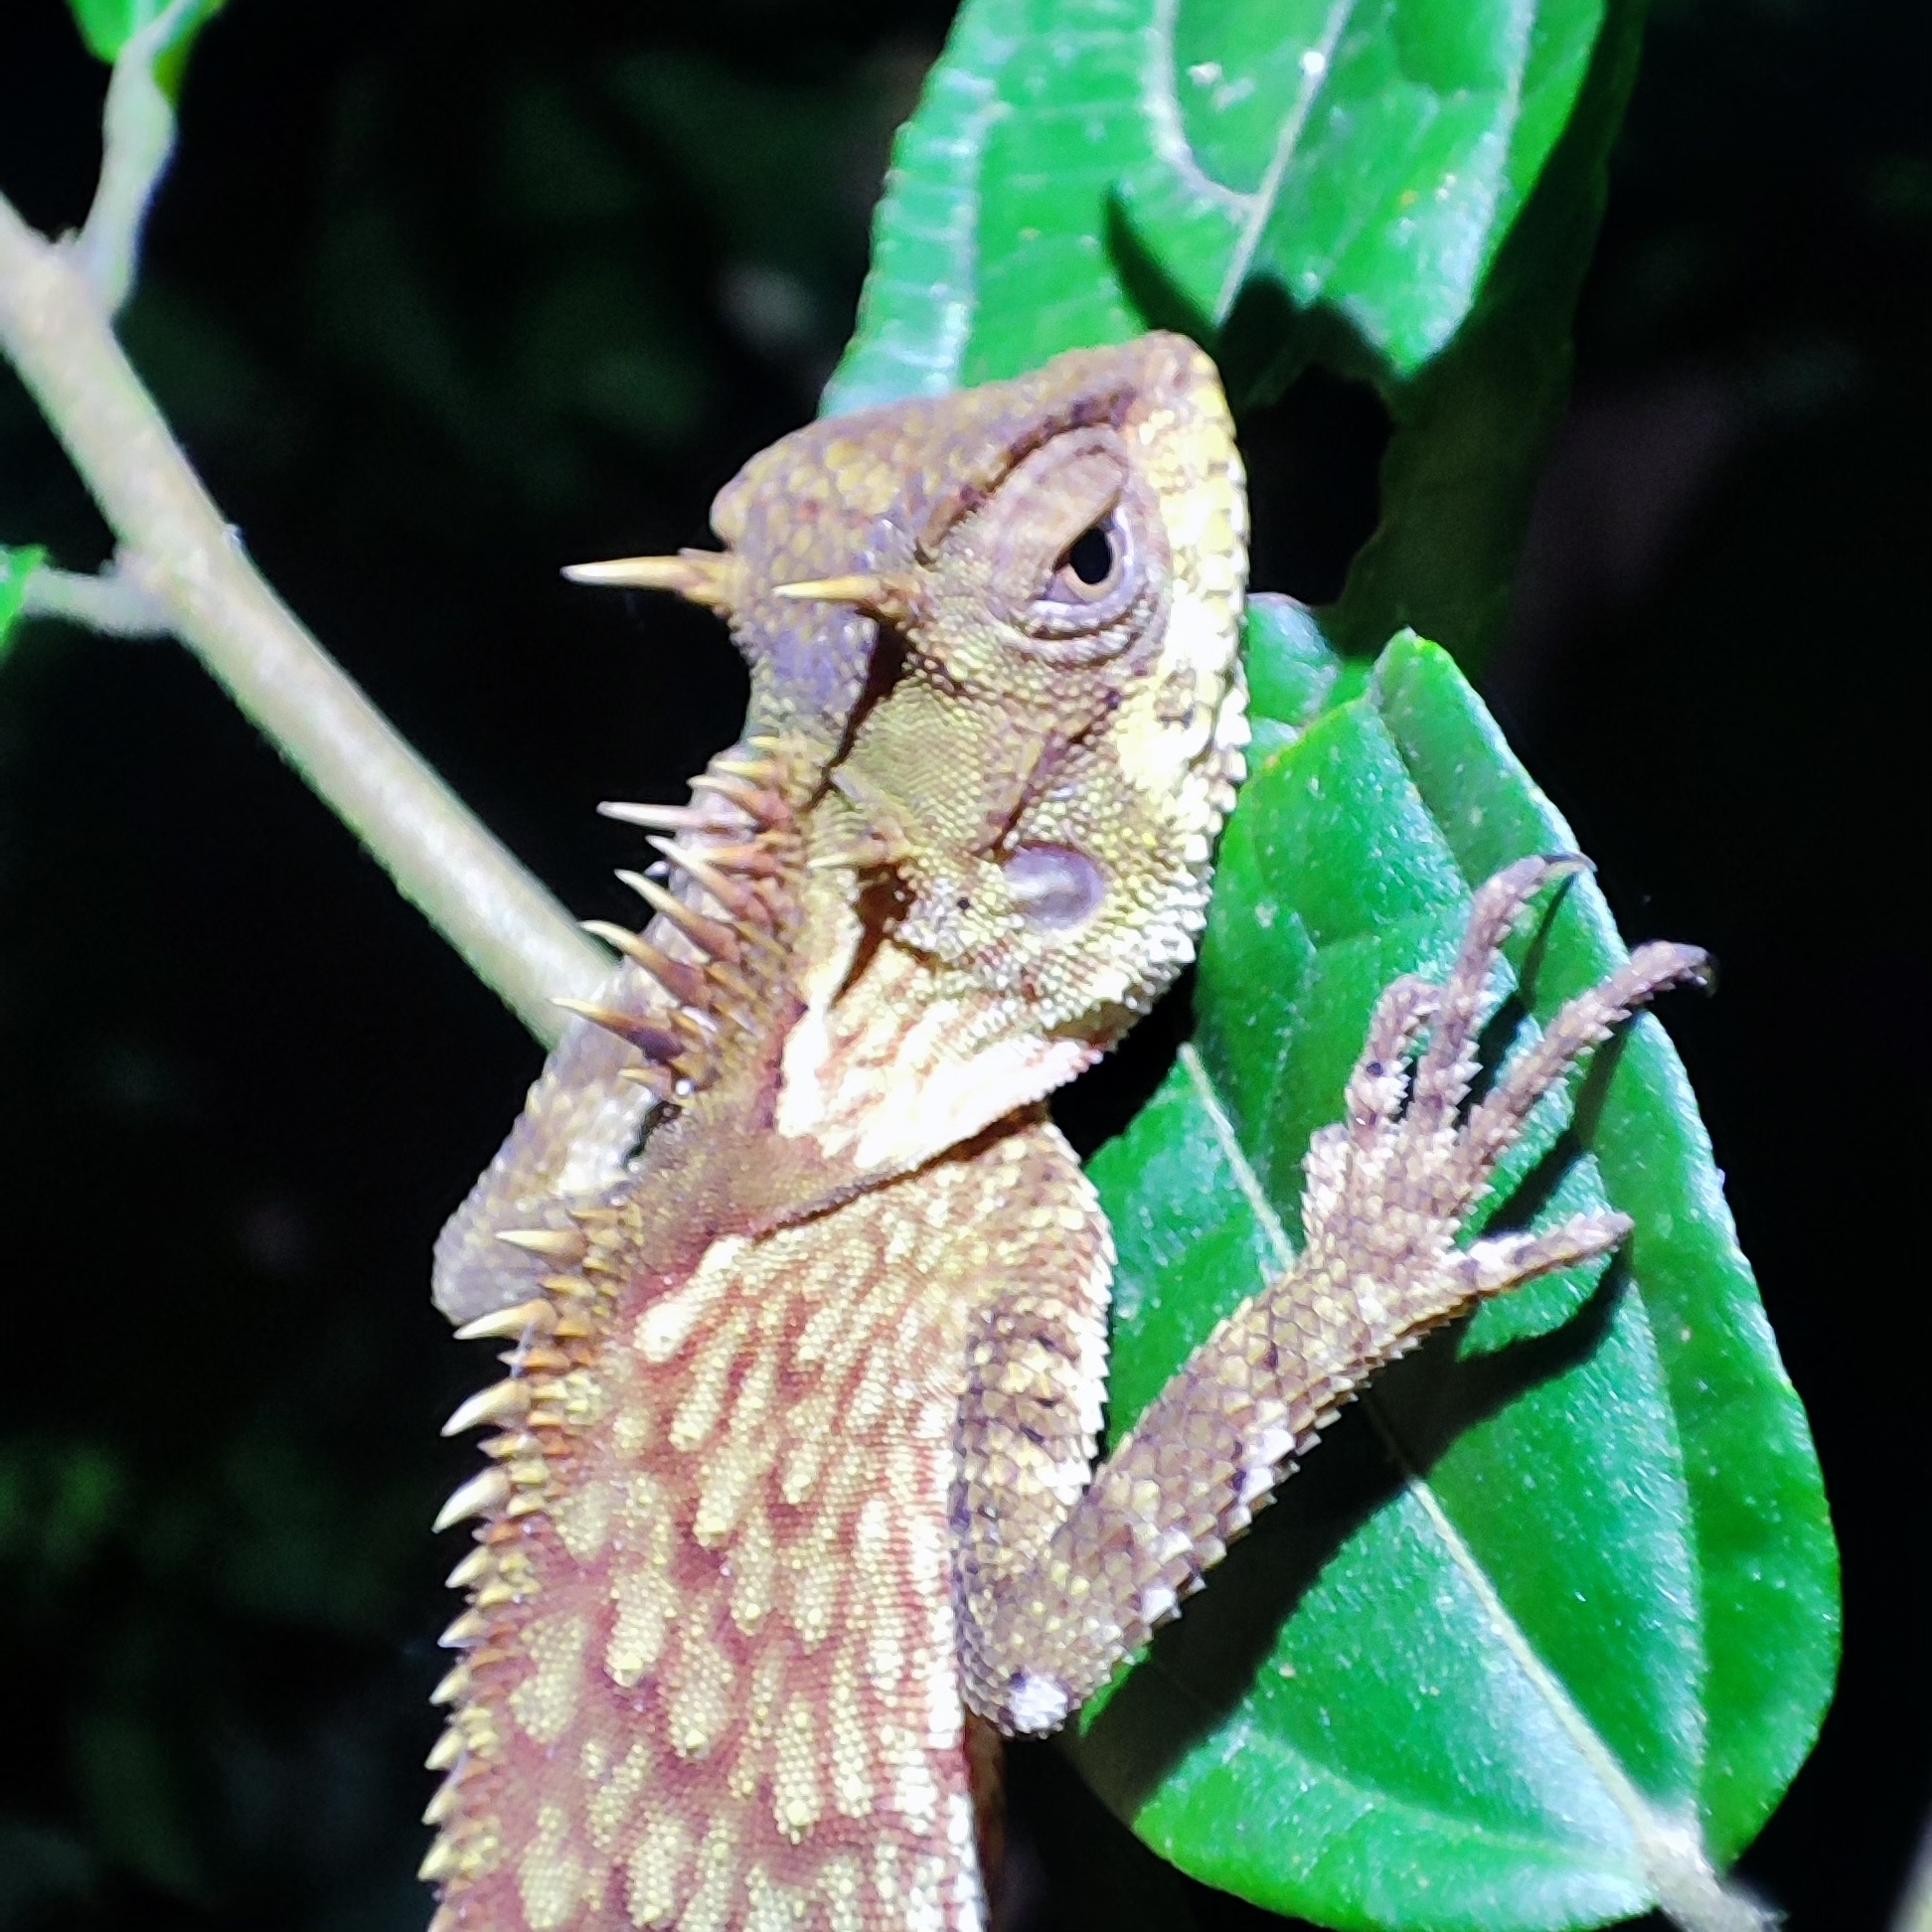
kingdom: Animalia
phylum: Chordata
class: Squamata
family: Agamidae
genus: Acanthosaura
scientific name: Acanthosaura phuketensis
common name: Phuket horned tree agamid
